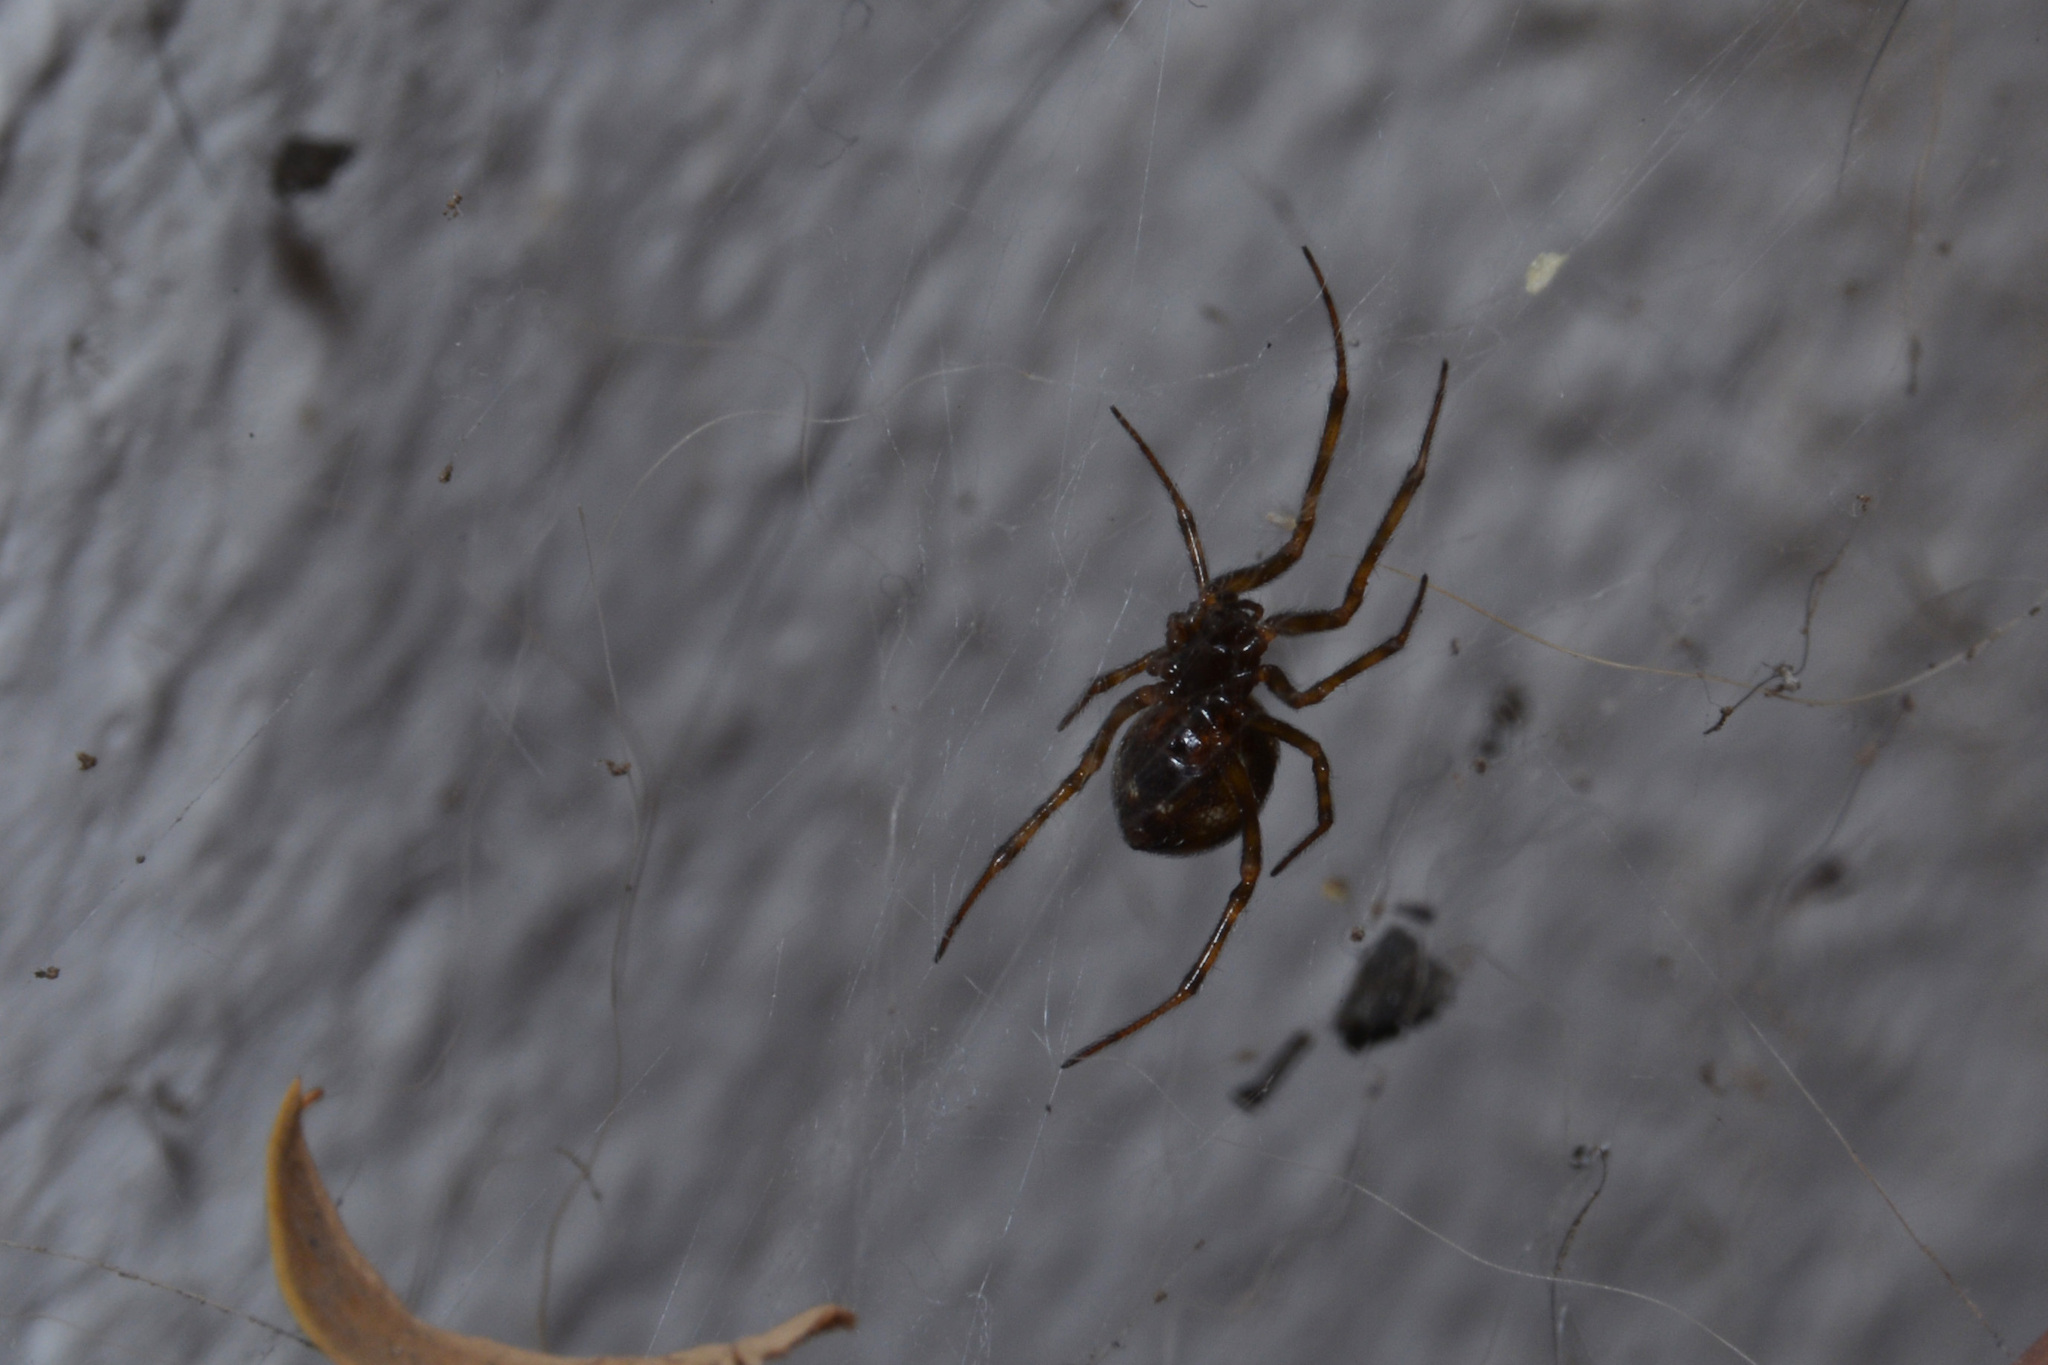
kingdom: Animalia
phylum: Arthropoda
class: Arachnida
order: Araneae
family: Theridiidae
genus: Steatoda
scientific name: Steatoda triangulosa
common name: Triangulate bud spider
